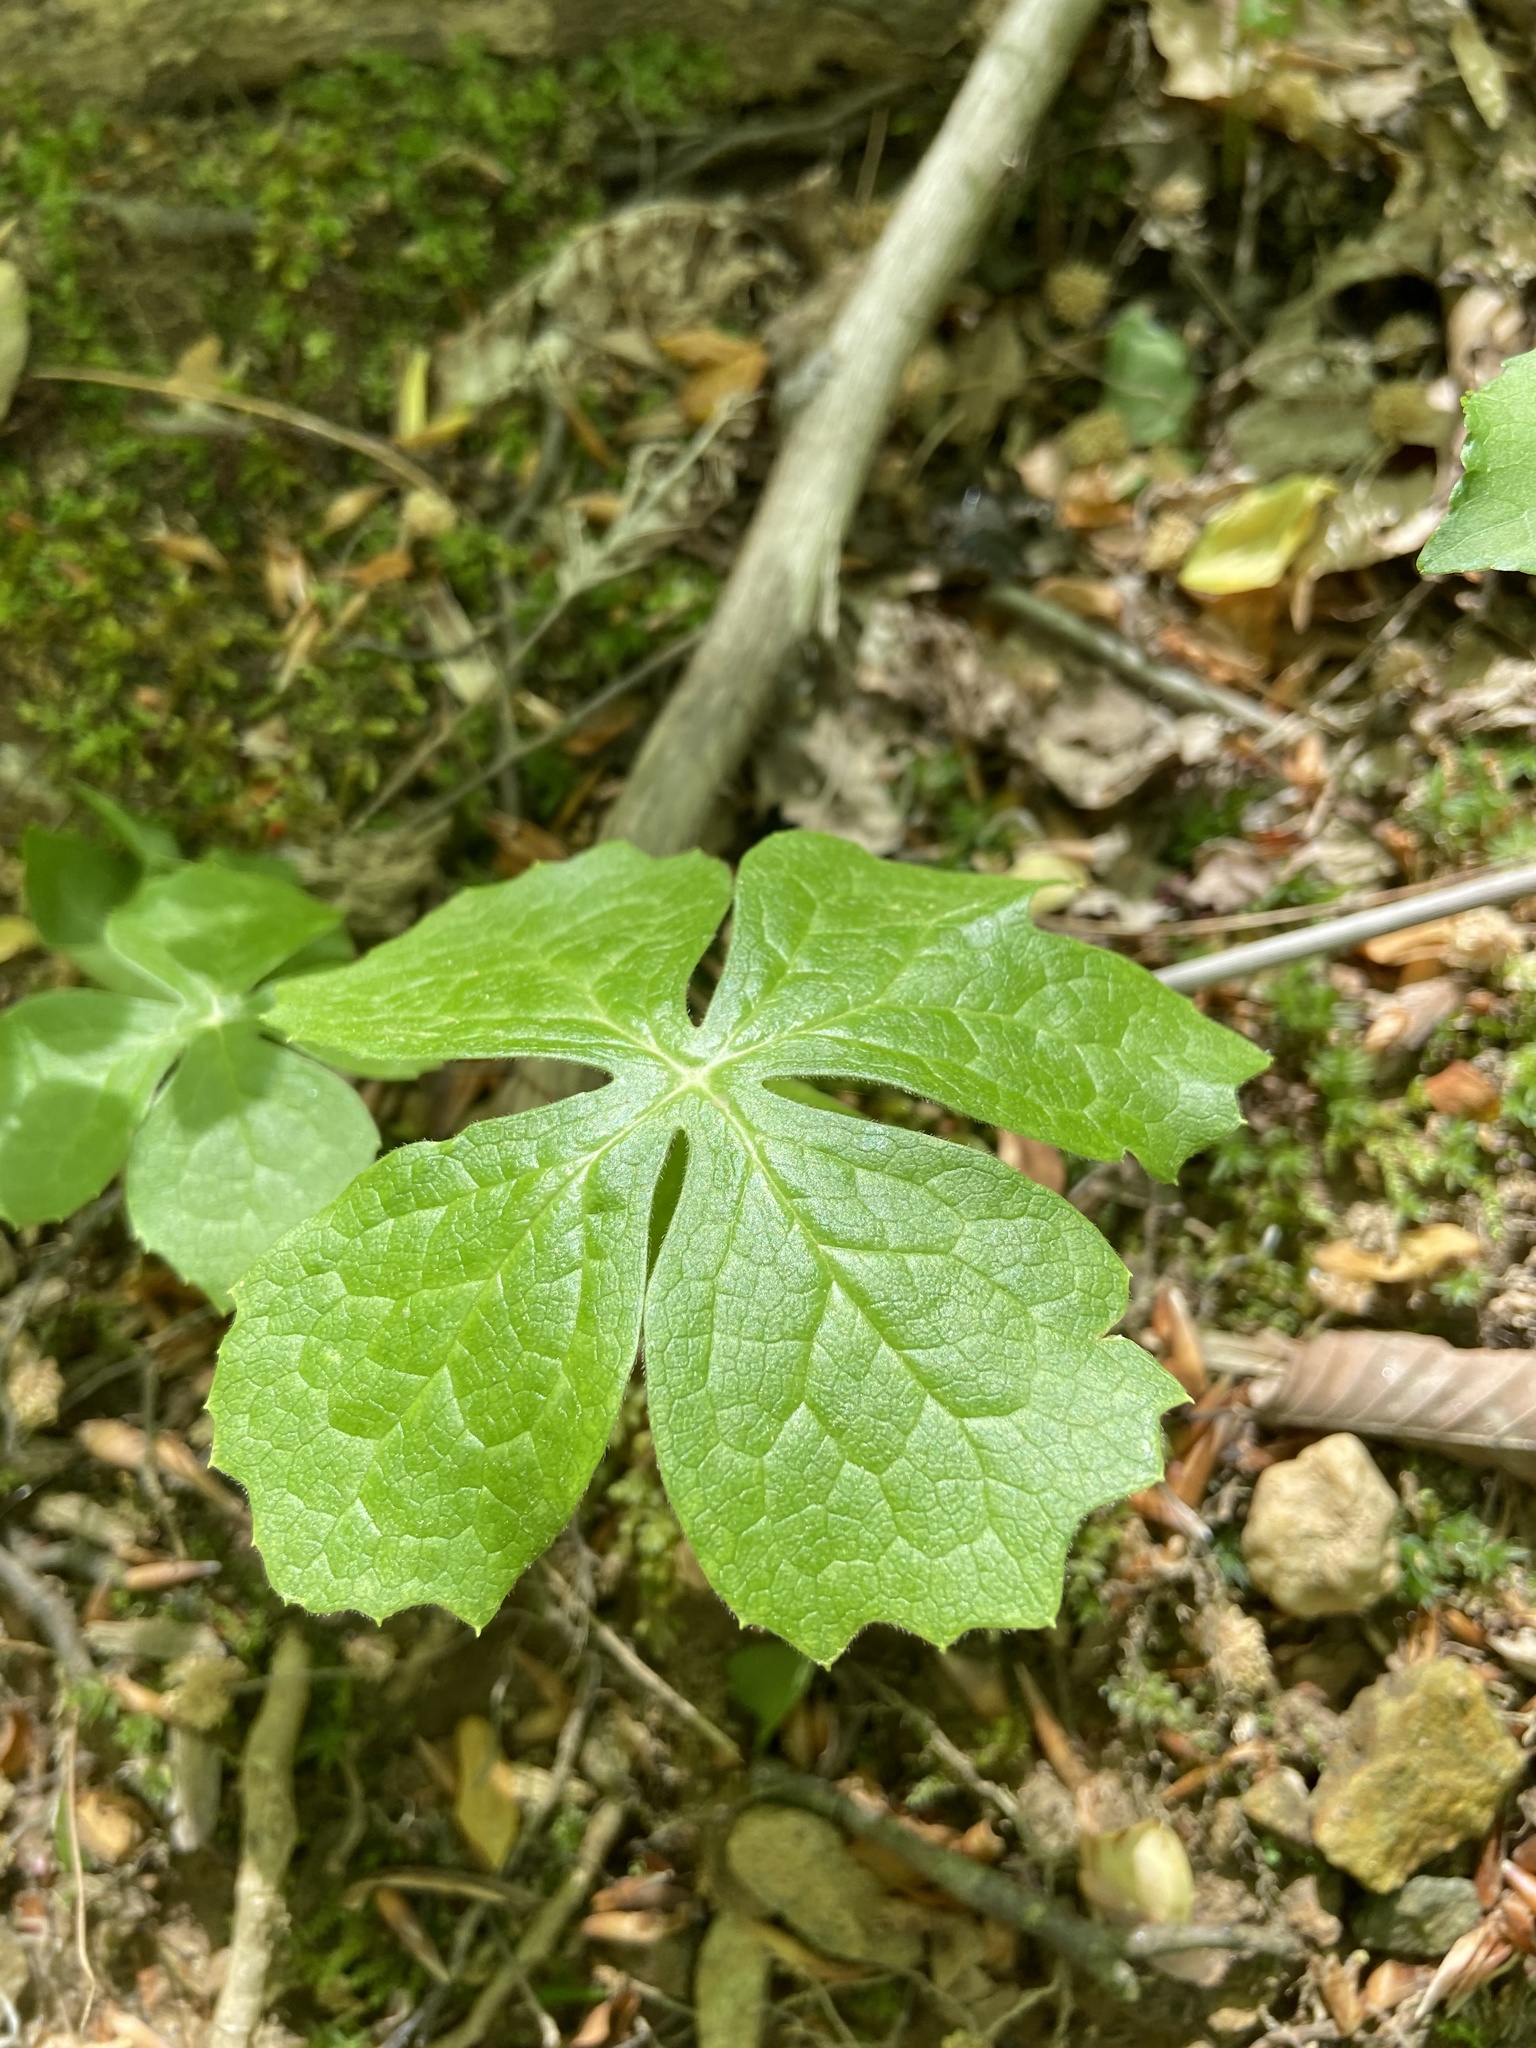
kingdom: Plantae
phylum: Tracheophyta
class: Magnoliopsida
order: Ranunculales
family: Berberidaceae
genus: Podophyllum
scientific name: Podophyllum peltatum
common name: Wild mandrake
